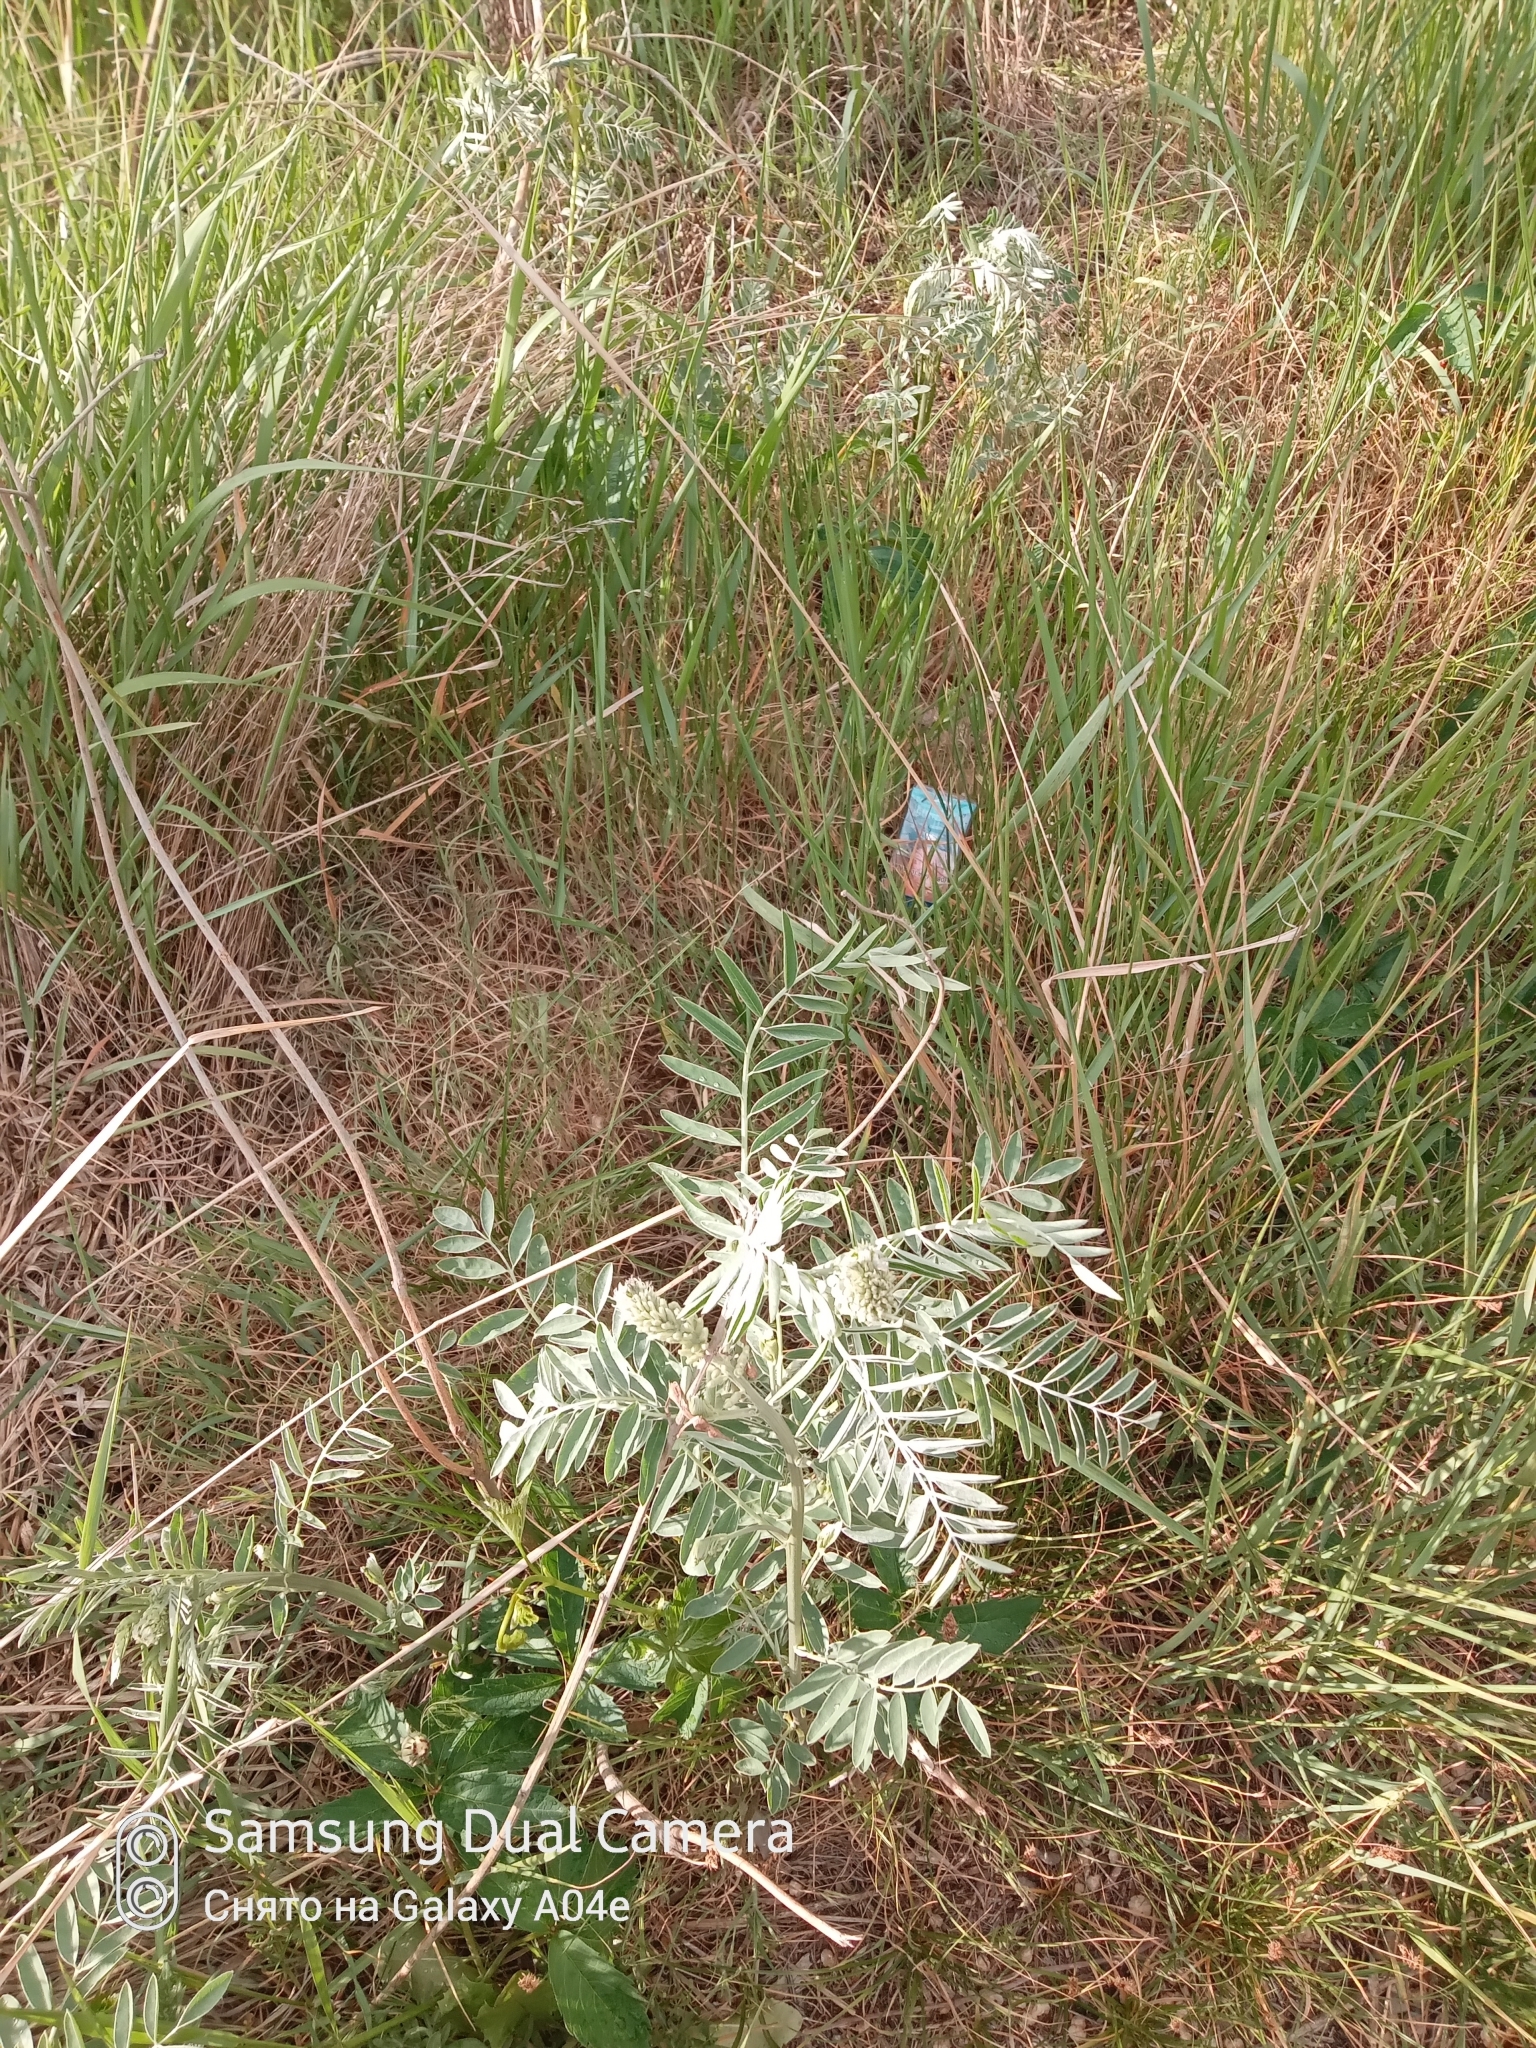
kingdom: Plantae
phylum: Tracheophyta
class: Magnoliopsida
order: Fabales
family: Fabaceae
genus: Sophora
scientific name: Sophora alopecuroides
